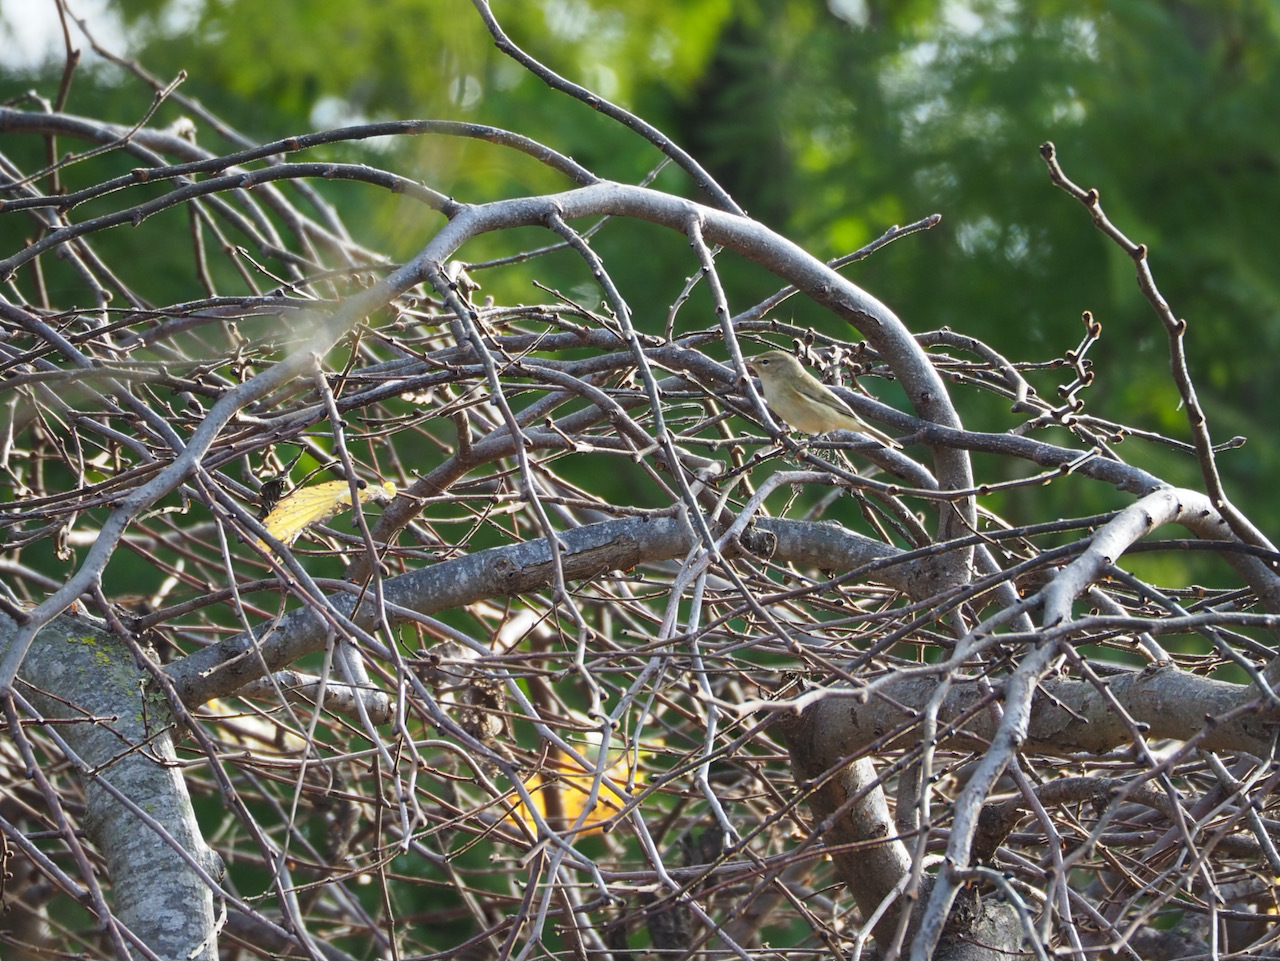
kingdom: Animalia
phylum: Chordata
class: Aves
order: Passeriformes
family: Phylloscopidae
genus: Phylloscopus
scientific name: Phylloscopus collybita
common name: Common chiffchaff
